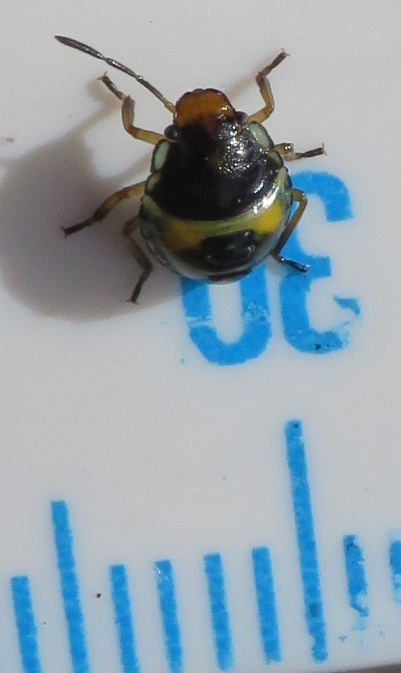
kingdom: Animalia
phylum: Arthropoda
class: Insecta
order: Hemiptera
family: Pentatomidae
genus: Glaucias
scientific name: Glaucias amyota
